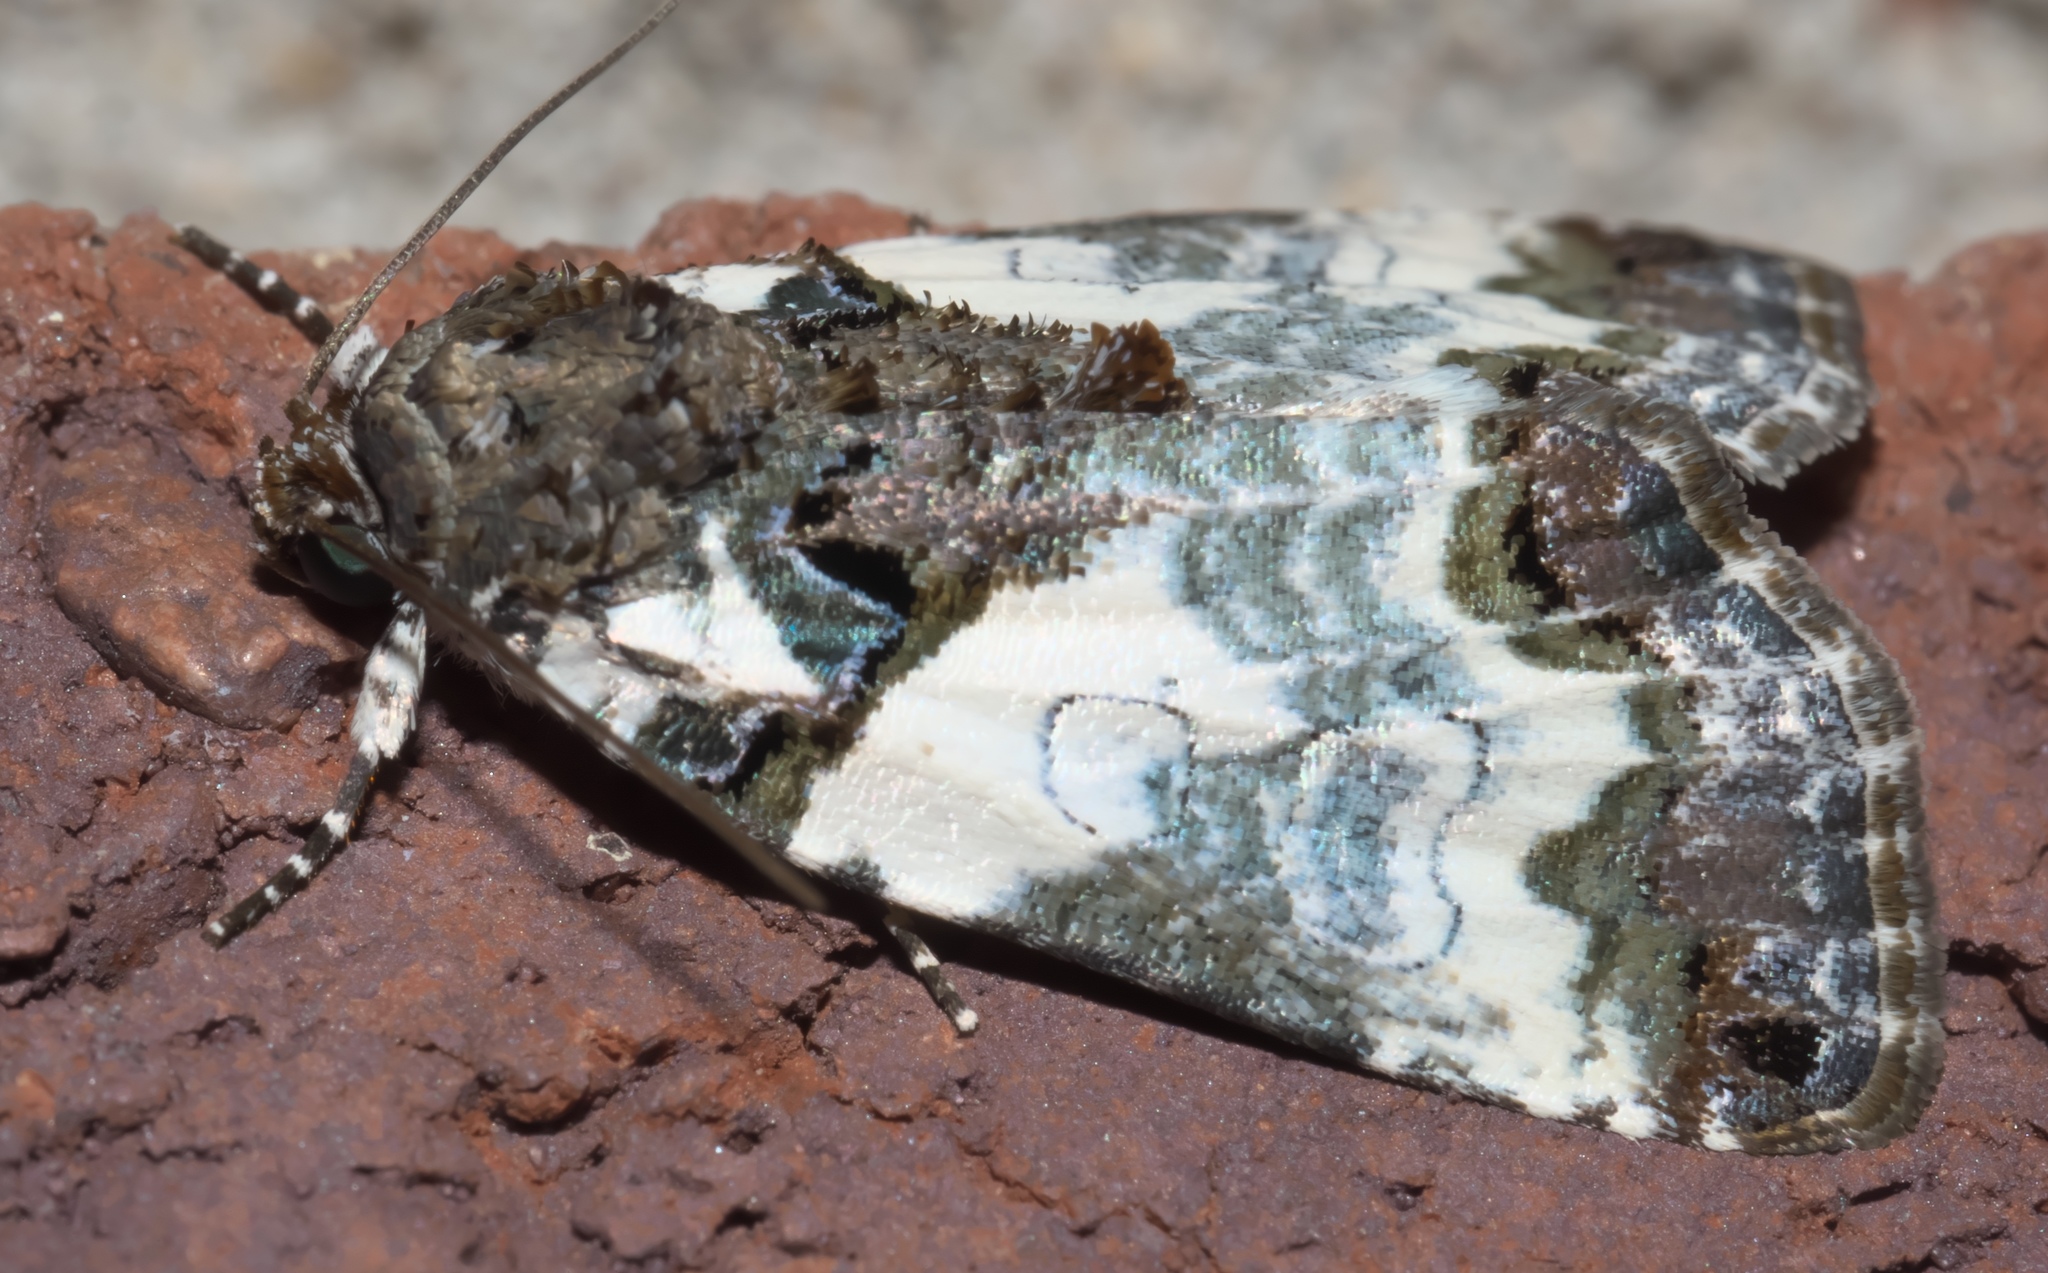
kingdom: Animalia
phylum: Arthropoda
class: Insecta
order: Lepidoptera
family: Noctuidae
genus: Cerma
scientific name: Cerma cerintha
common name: Tufted bird-dropping moth
